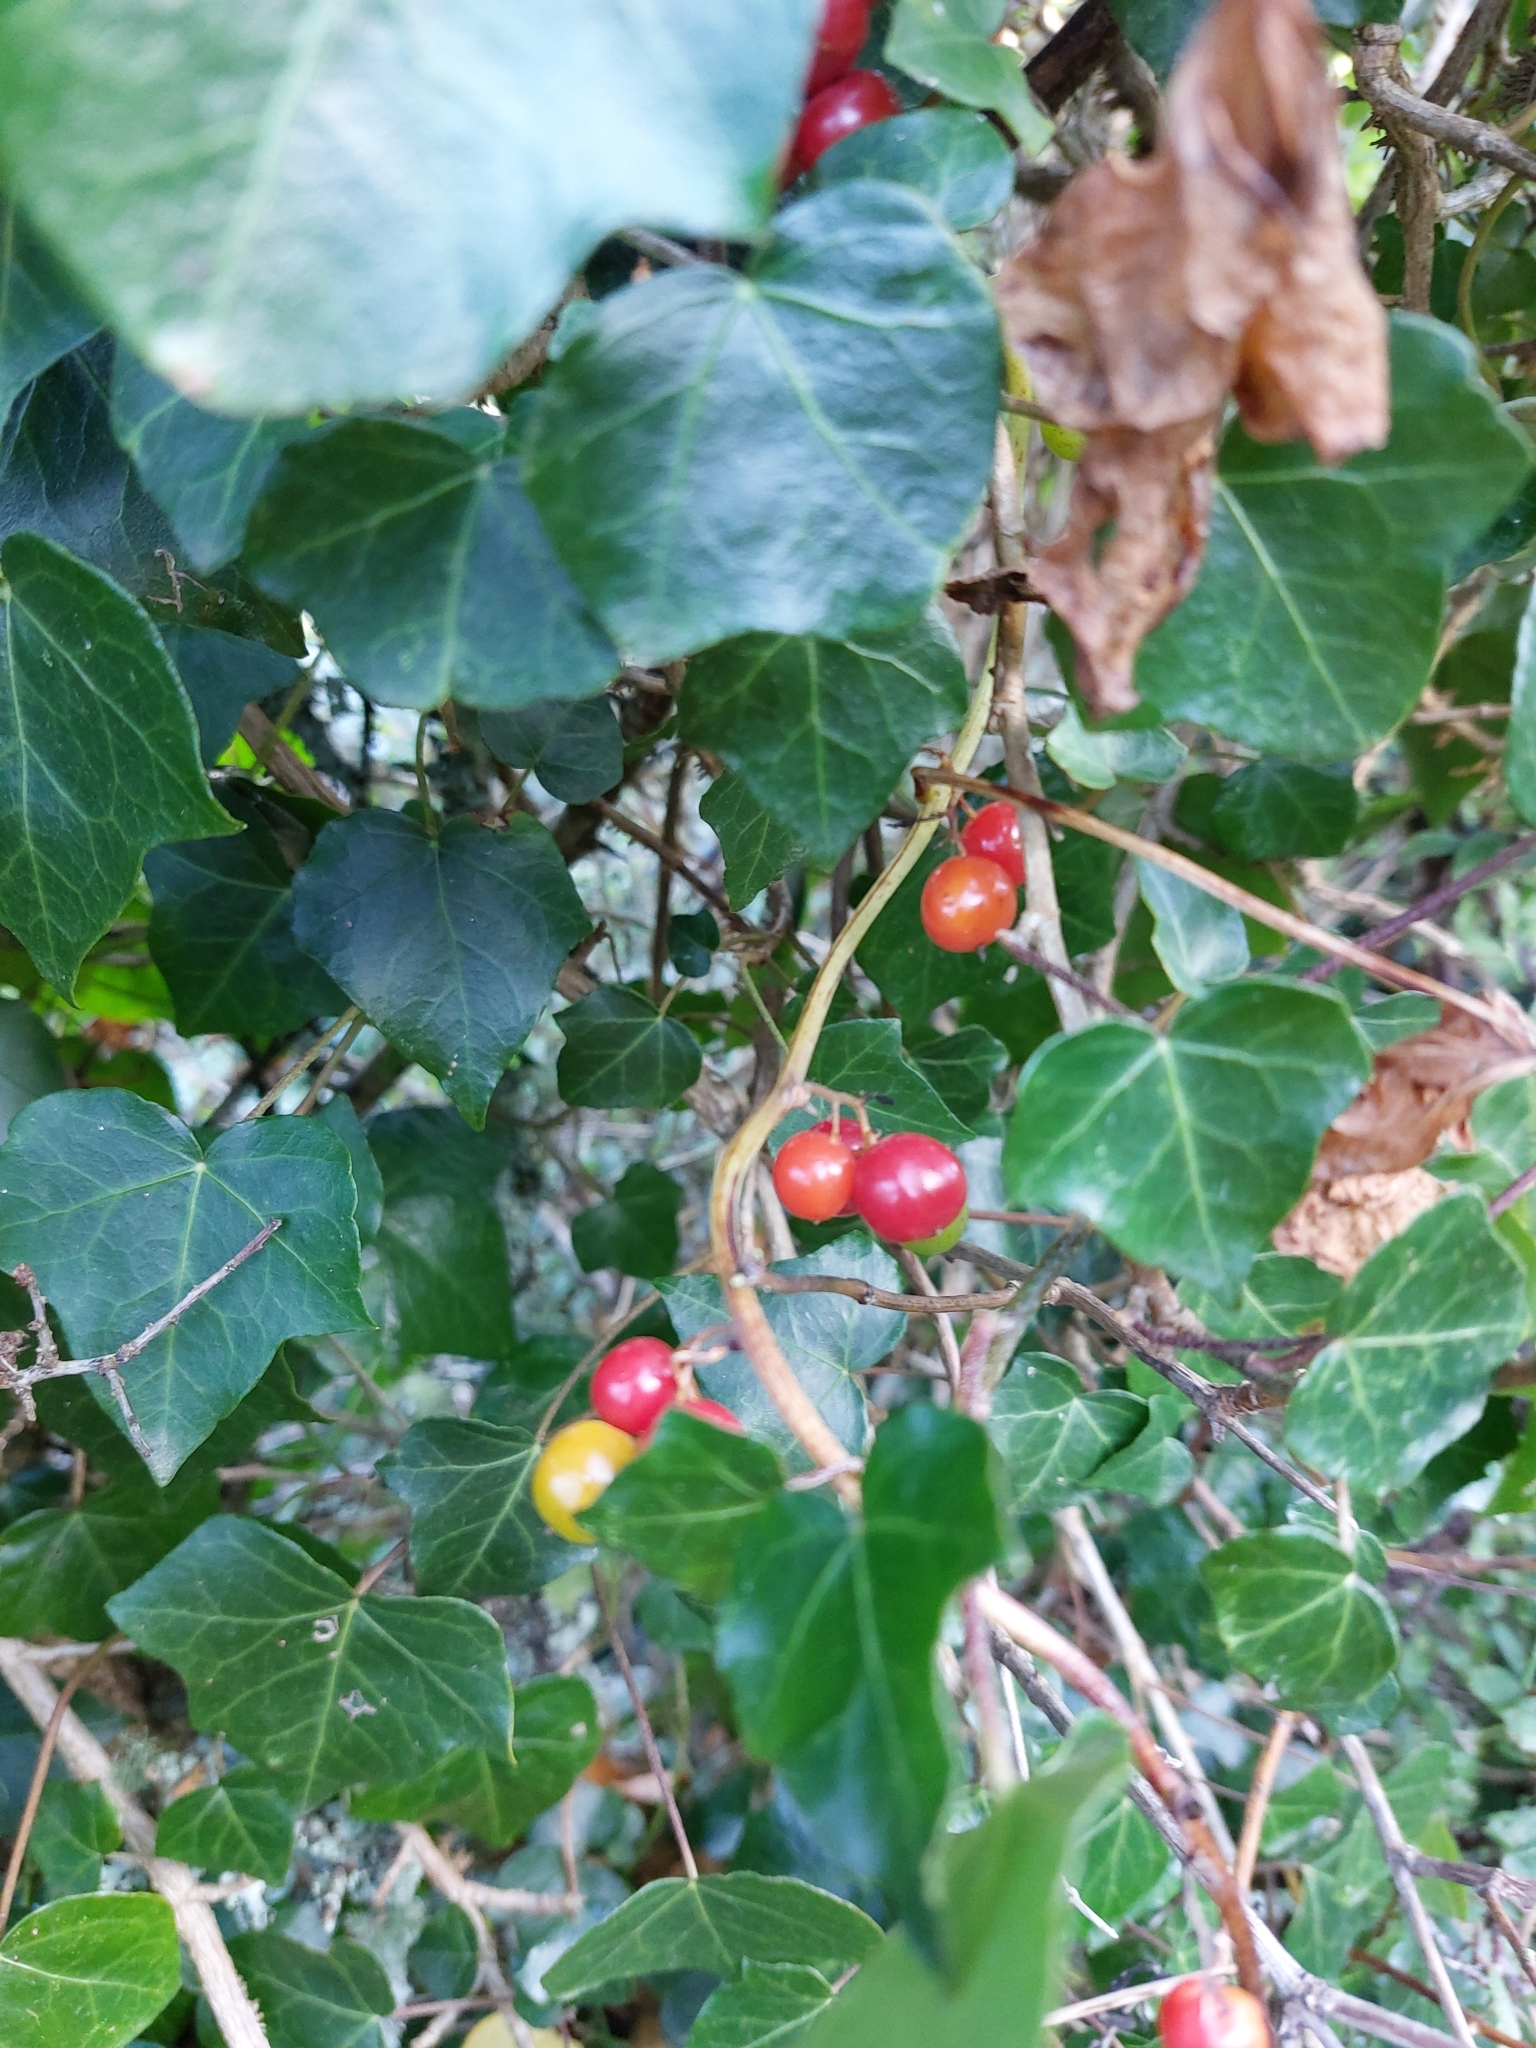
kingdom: Plantae
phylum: Tracheophyta
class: Liliopsida
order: Dioscoreales
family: Dioscoreaceae
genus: Dioscorea
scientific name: Dioscorea communis
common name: Black-bindweed
